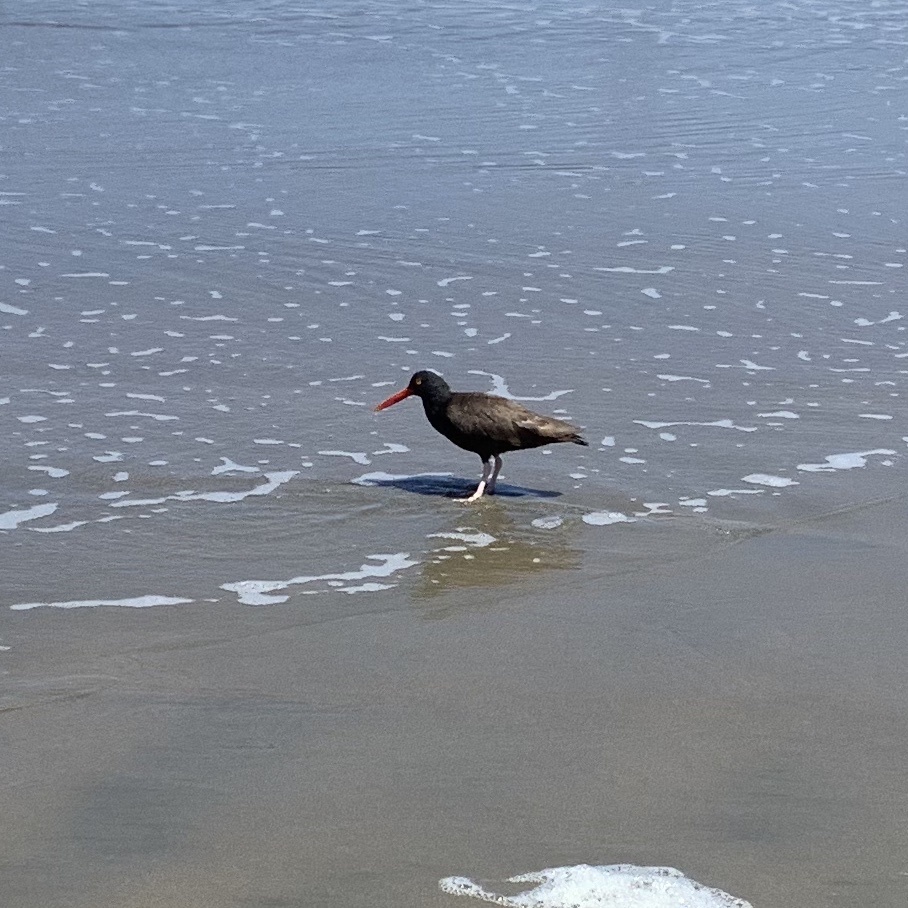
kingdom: Animalia
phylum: Chordata
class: Aves
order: Charadriiformes
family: Haematopodidae
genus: Haematopus
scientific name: Haematopus bachmani
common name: Black oystercatcher
